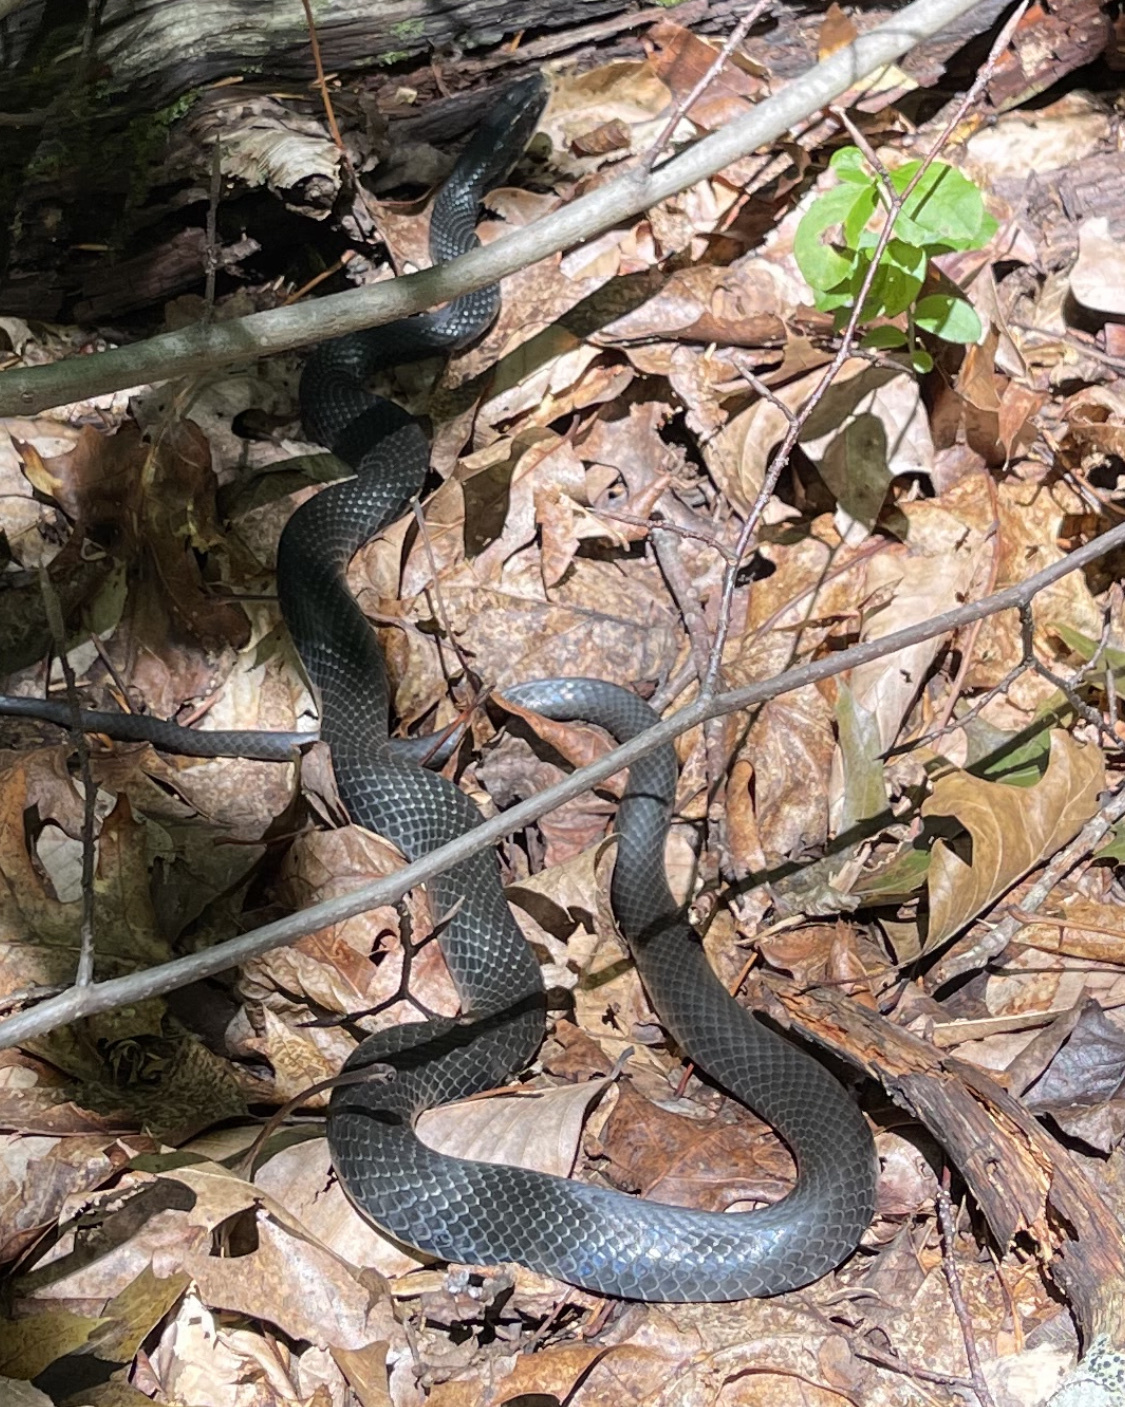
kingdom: Animalia
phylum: Chordata
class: Squamata
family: Colubridae
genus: Coluber
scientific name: Coluber constrictor
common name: Eastern racer
